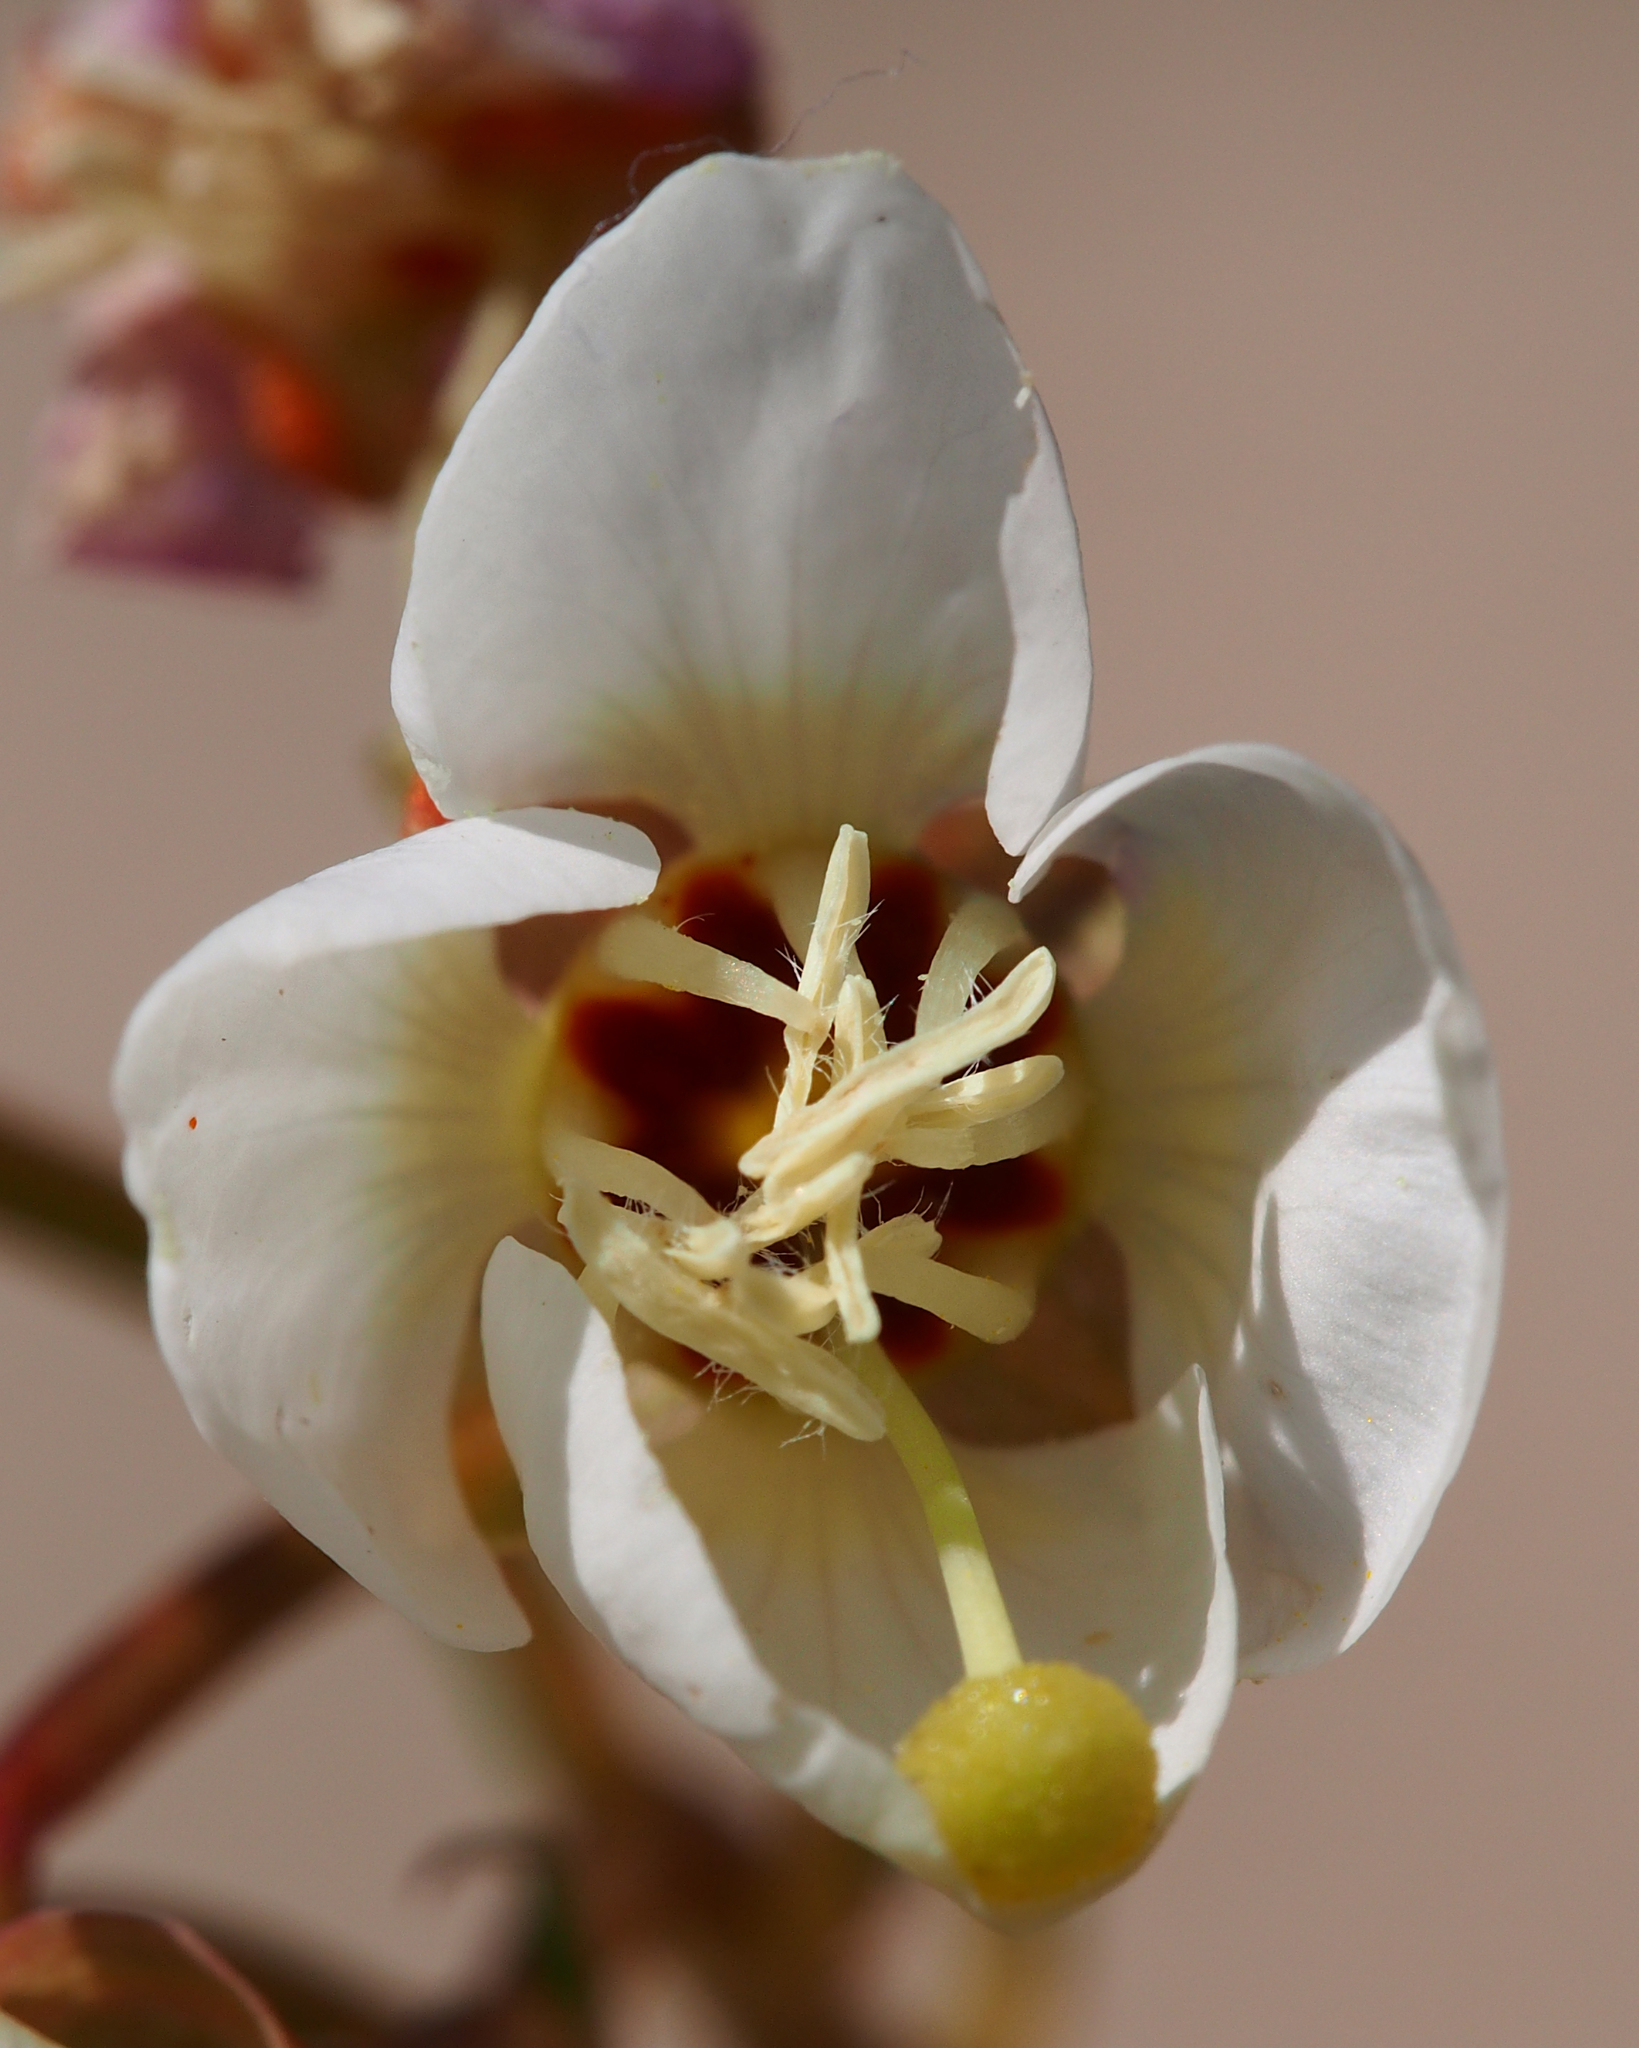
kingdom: Plantae
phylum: Tracheophyta
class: Magnoliopsida
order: Myrtales
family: Onagraceae
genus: Chylismia
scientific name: Chylismia claviformis
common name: Browneyes
